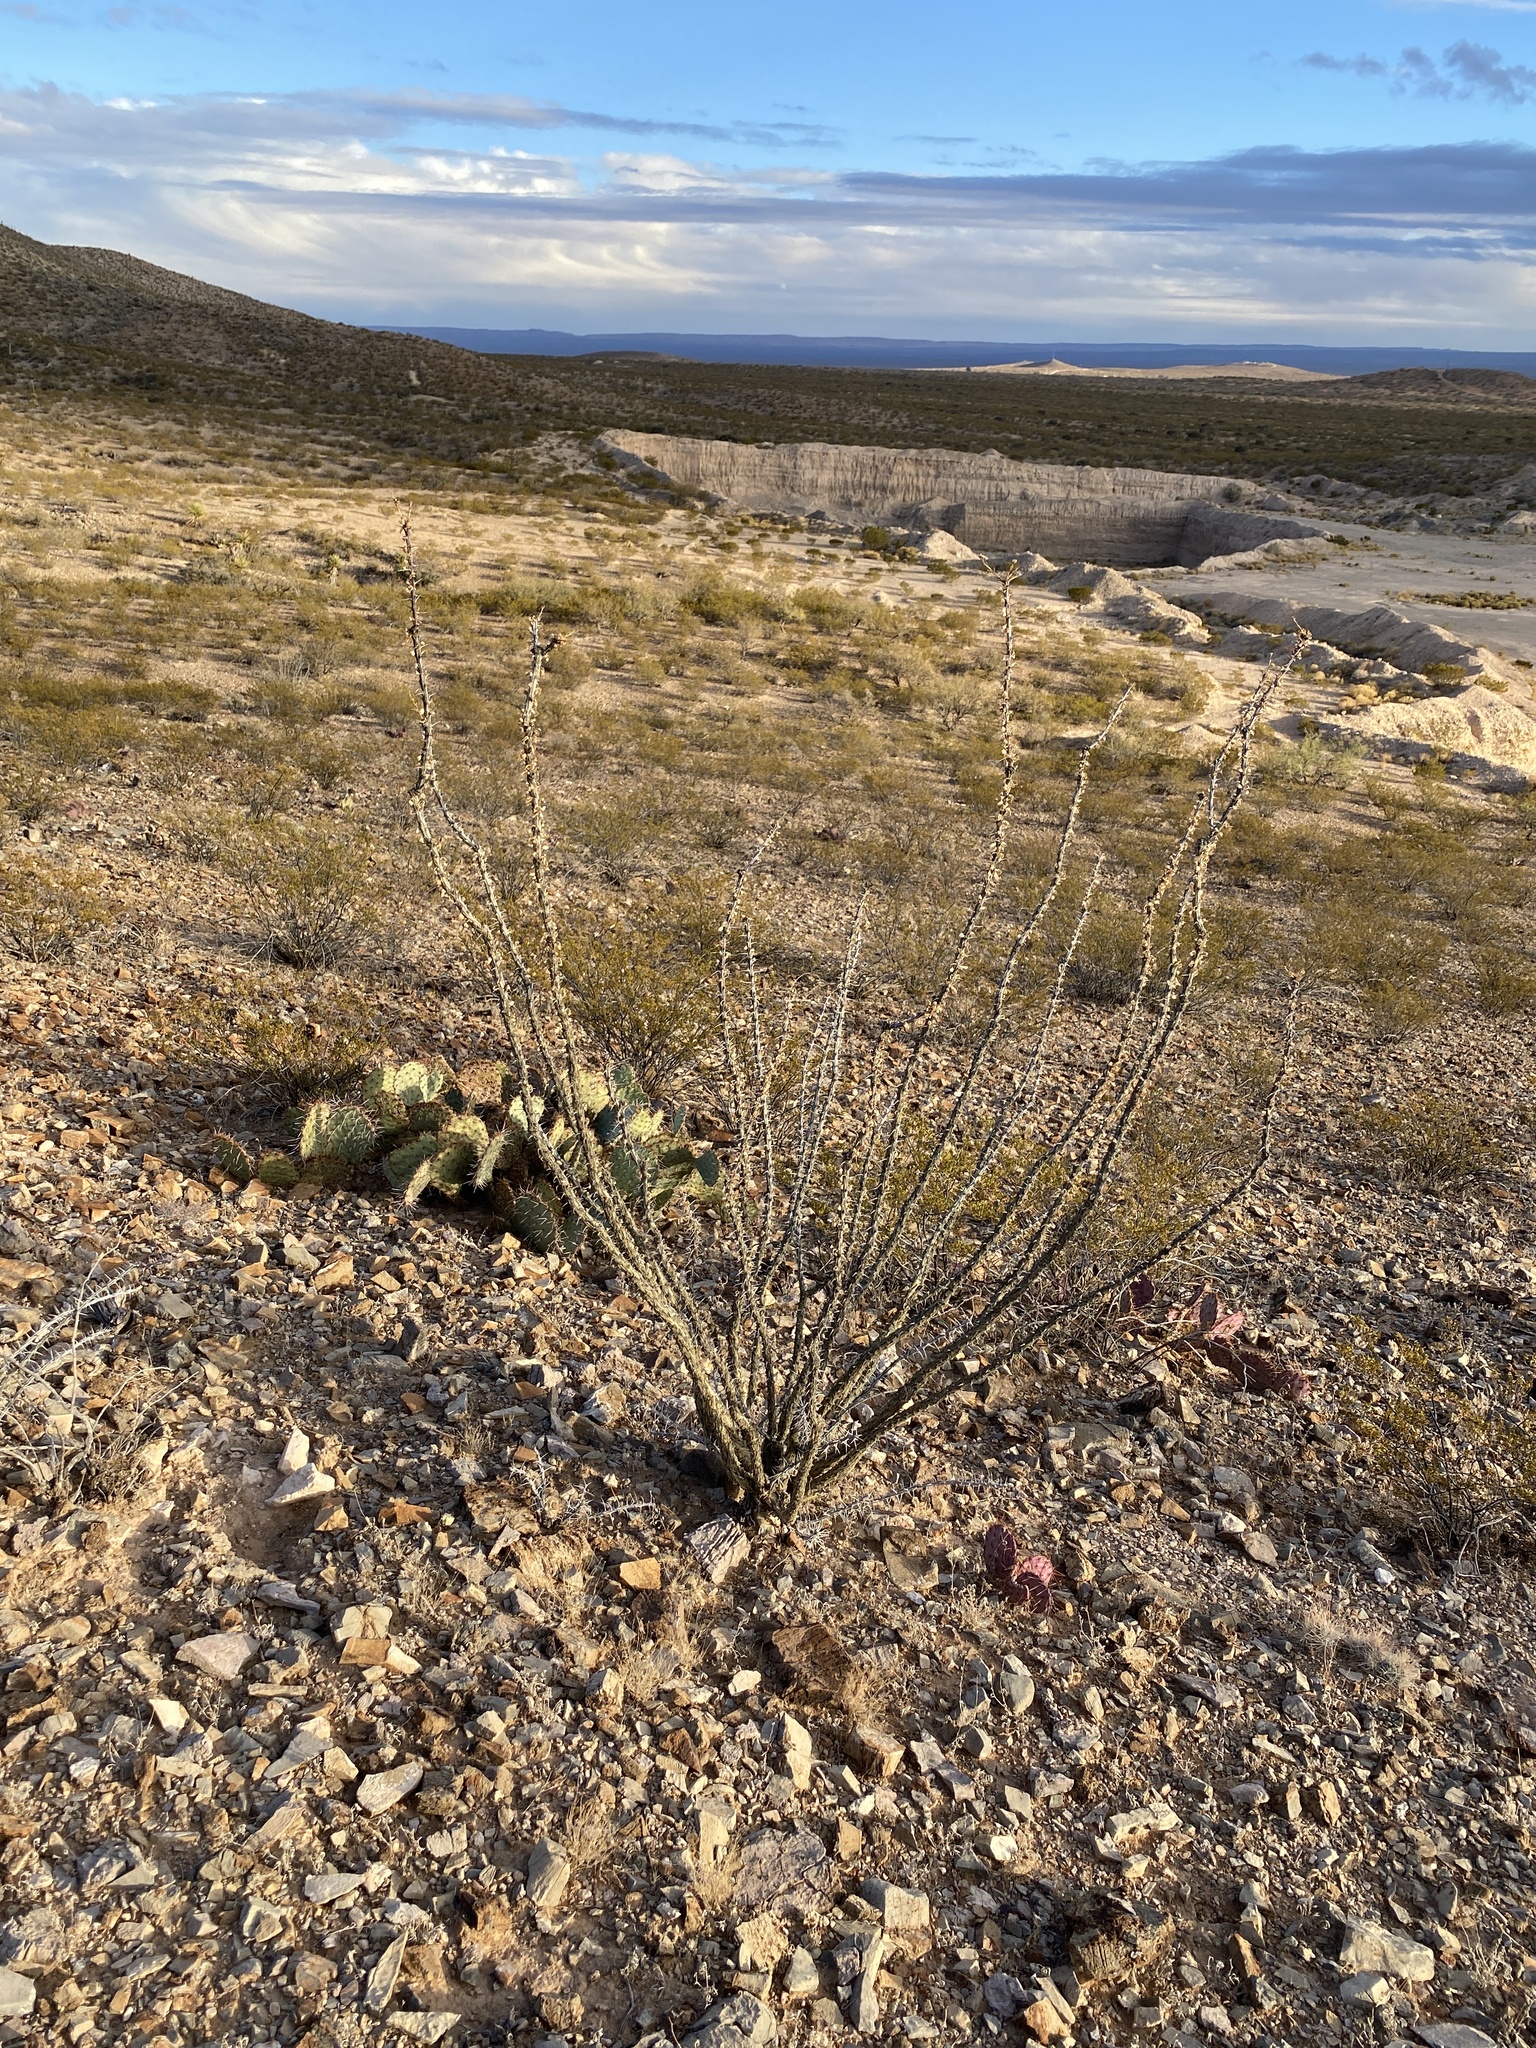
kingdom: Plantae
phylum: Tracheophyta
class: Magnoliopsida
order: Ericales
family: Fouquieriaceae
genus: Fouquieria
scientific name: Fouquieria splendens
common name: Vine-cactus
